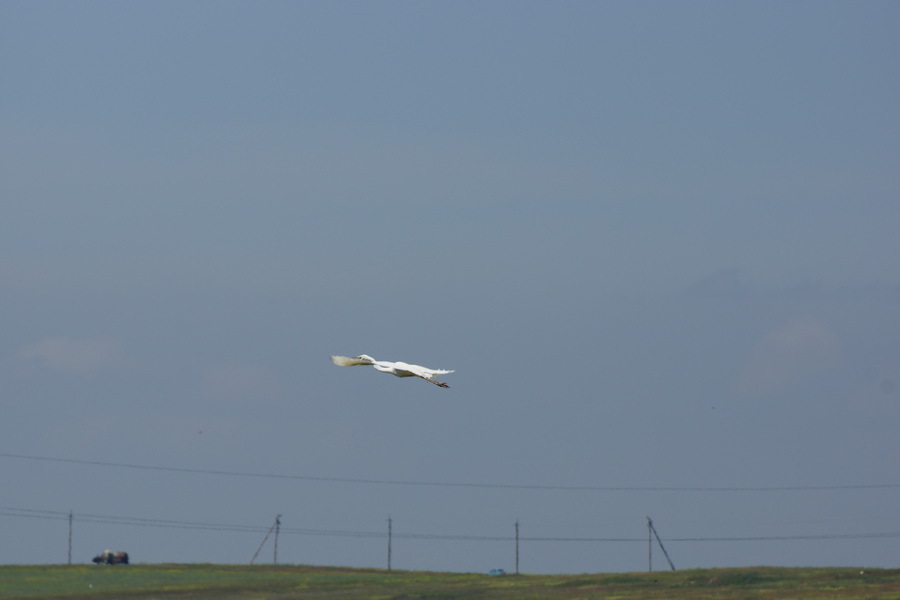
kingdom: Animalia
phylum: Chordata
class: Aves
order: Pelecaniformes
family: Ardeidae
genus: Ardea
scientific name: Ardea alba
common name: Great egret
